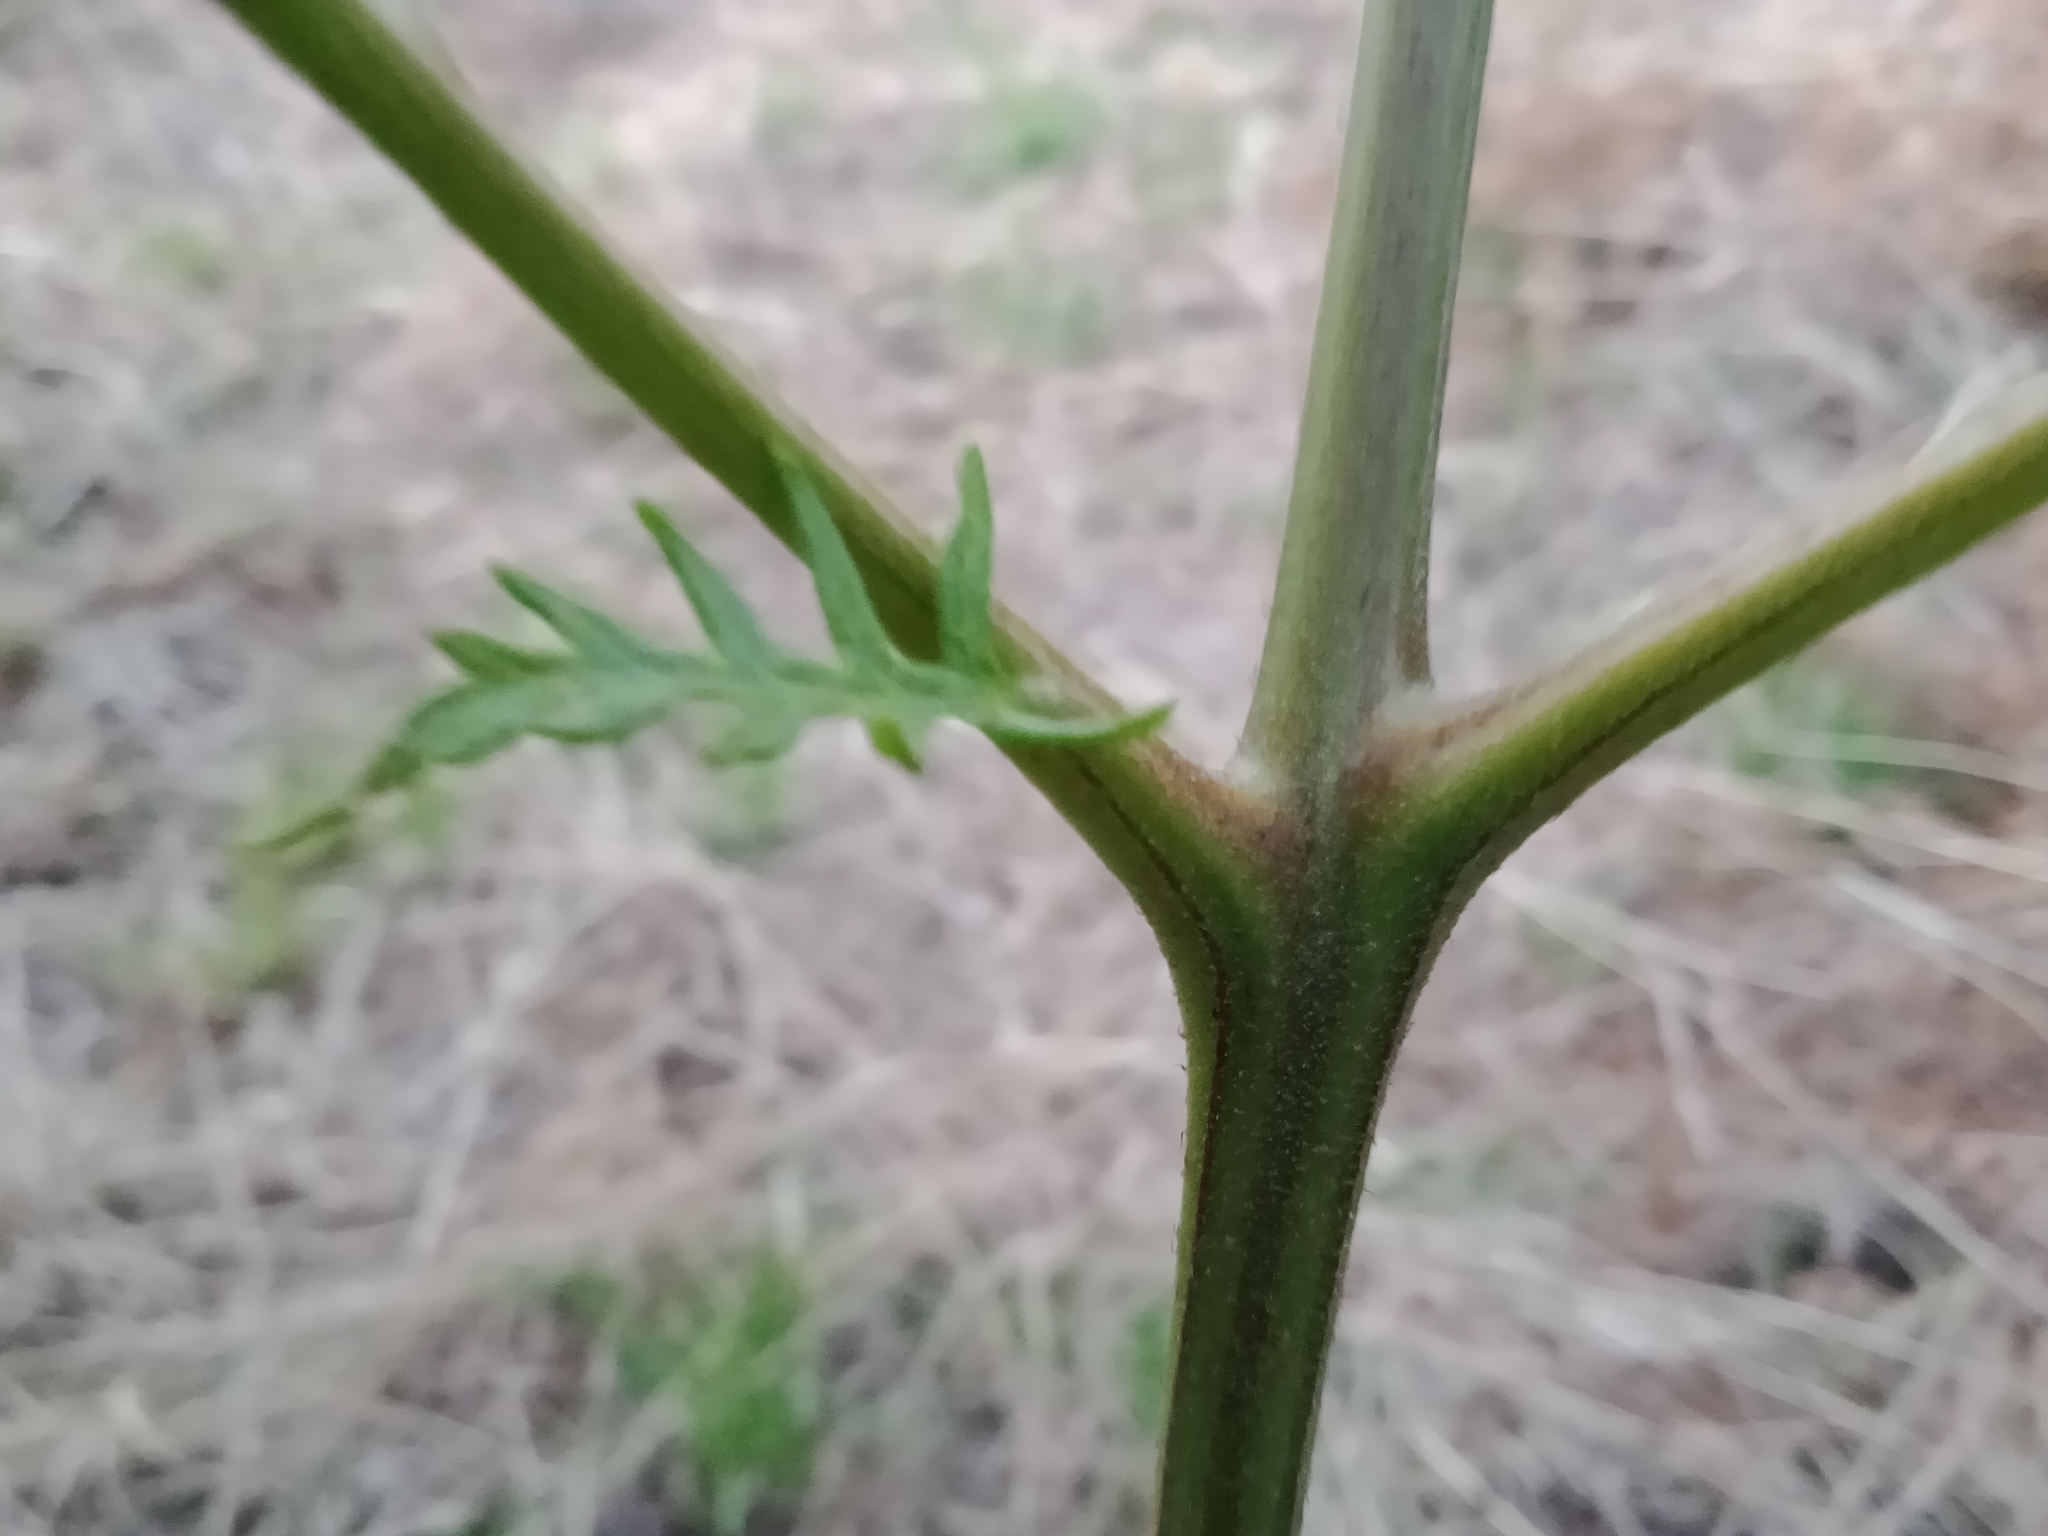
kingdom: Plantae
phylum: Tracheophyta
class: Polypodiopsida
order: Polypodiales
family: Dennstaedtiaceae
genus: Pteridium
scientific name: Pteridium esculentum
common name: Bracken fern
